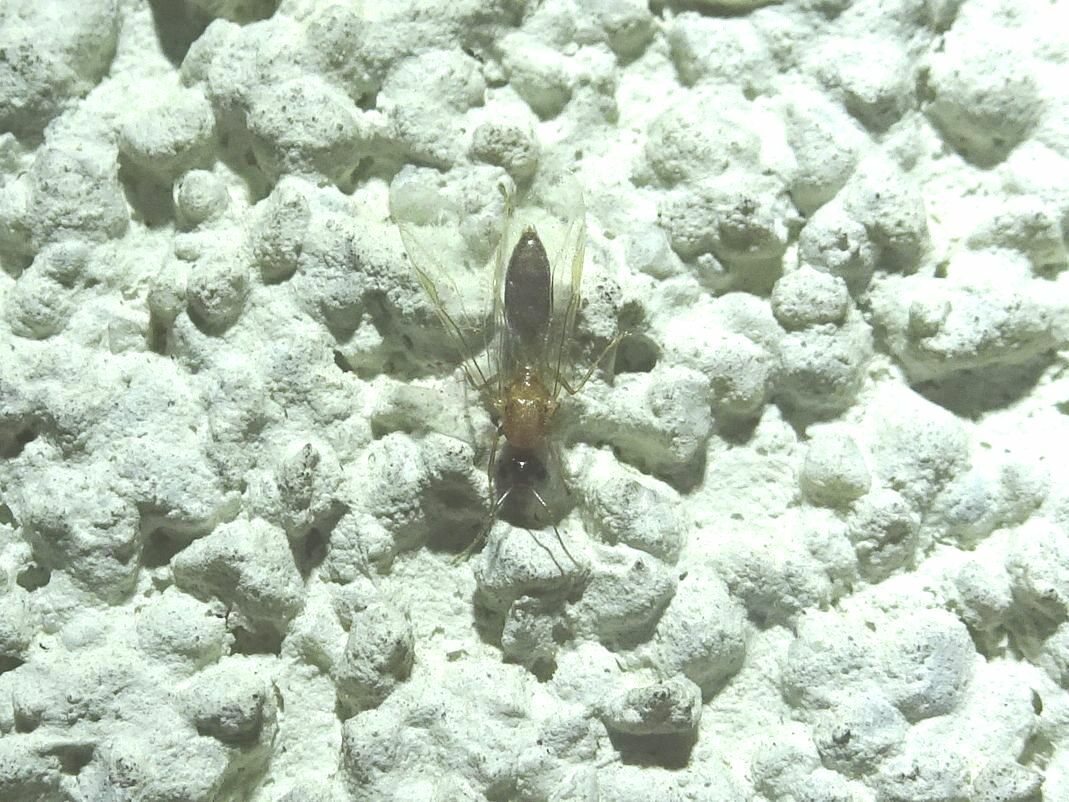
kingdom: Animalia
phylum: Arthropoda
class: Insecta
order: Hymenoptera
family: Formicidae
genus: Camponotus
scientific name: Camponotus truncatus
